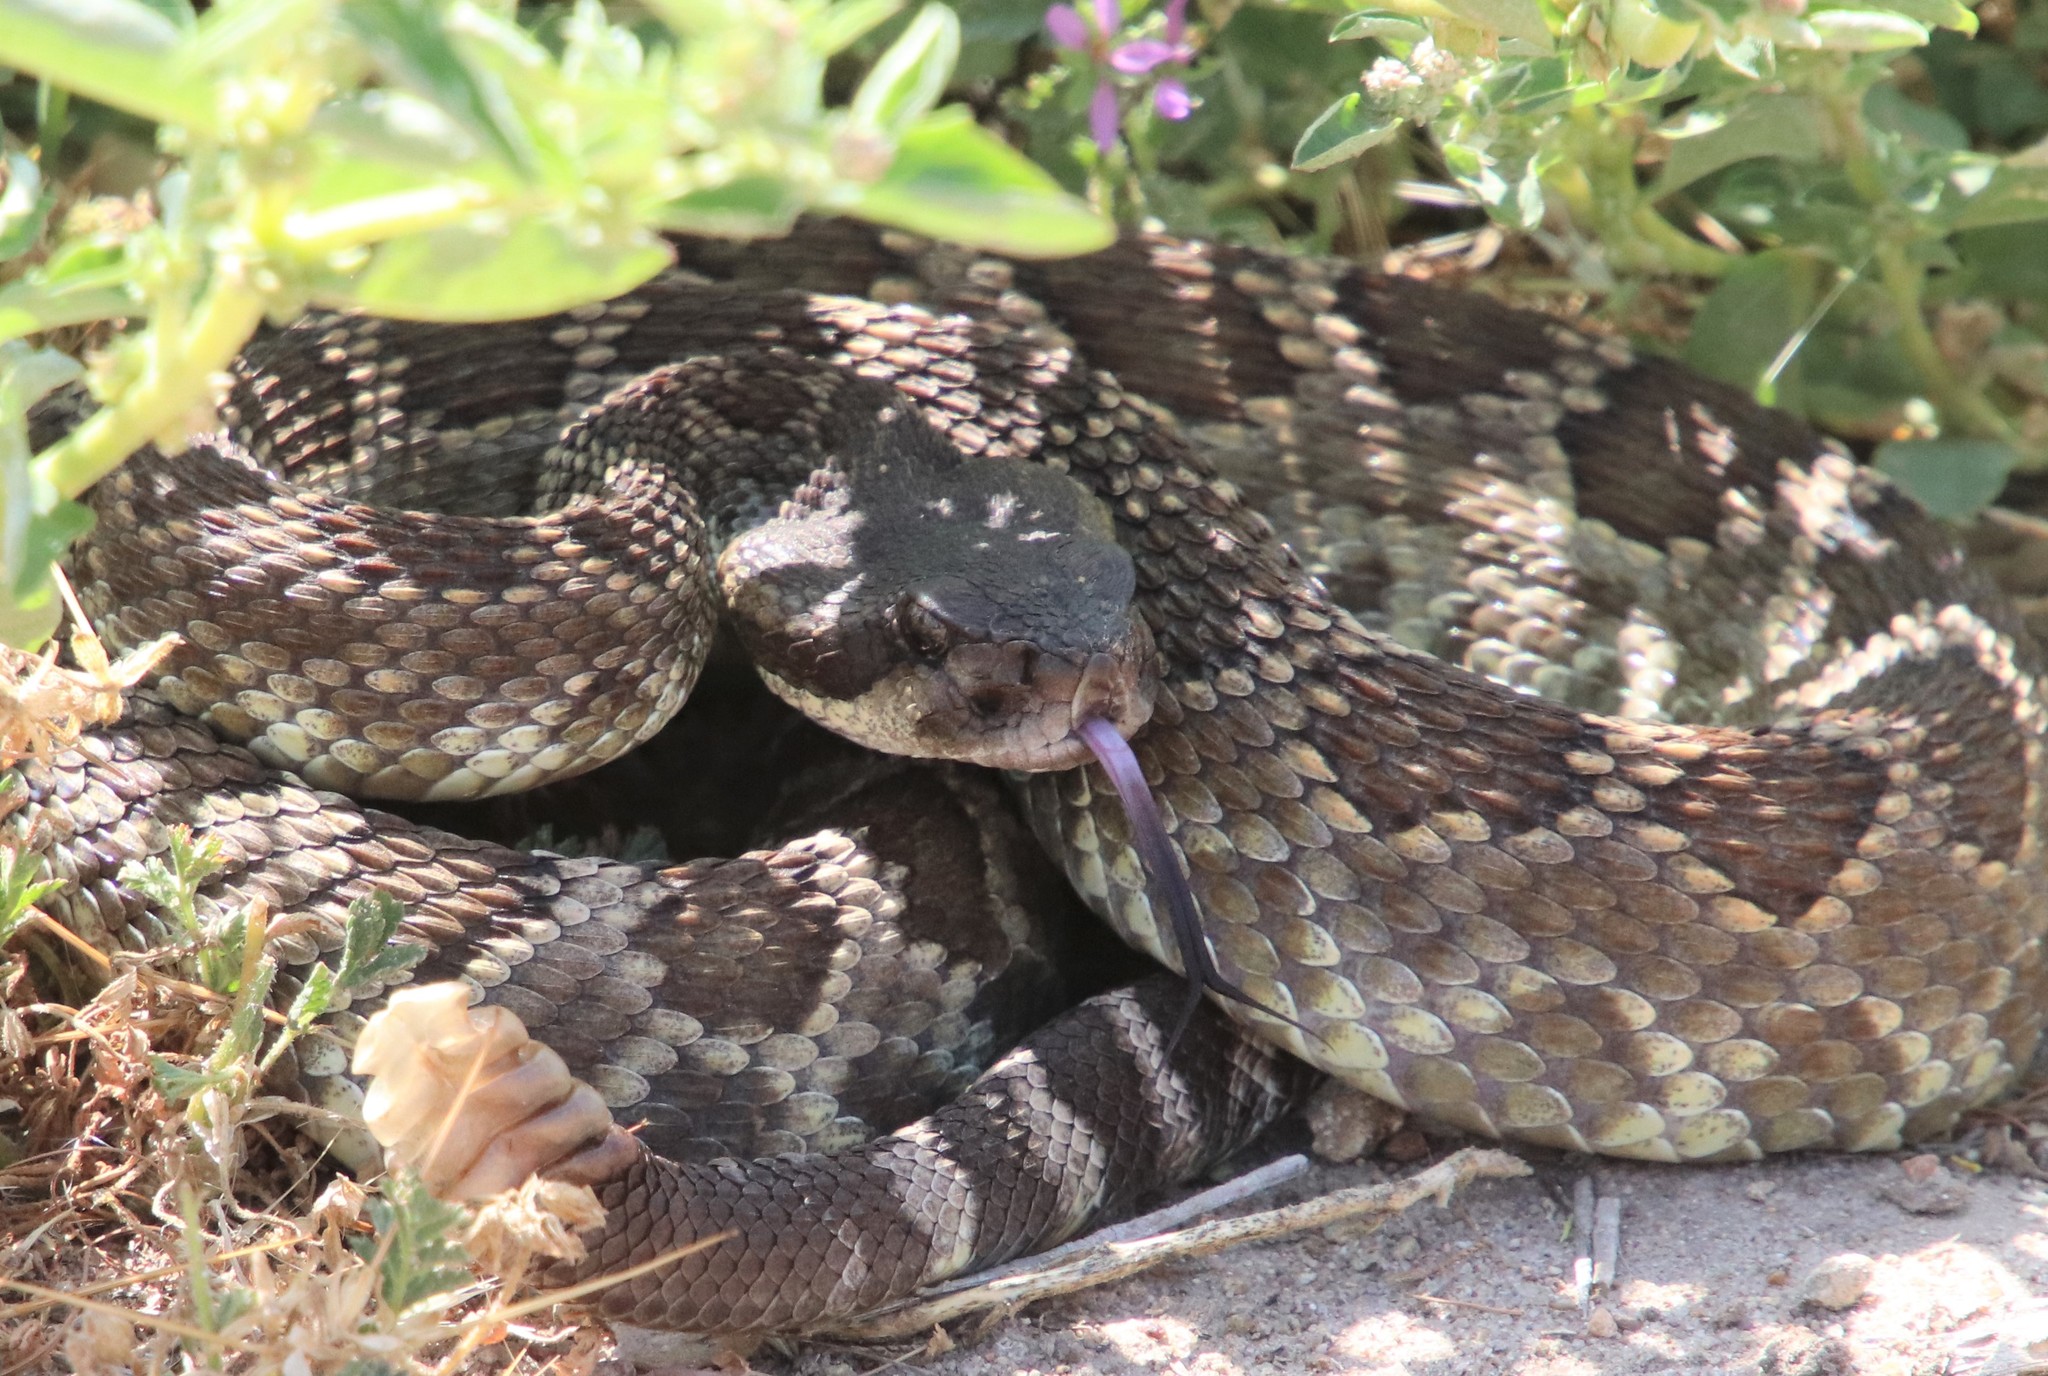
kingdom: Animalia
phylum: Chordata
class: Squamata
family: Viperidae
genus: Crotalus
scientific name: Crotalus oreganus
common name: Abyssus
